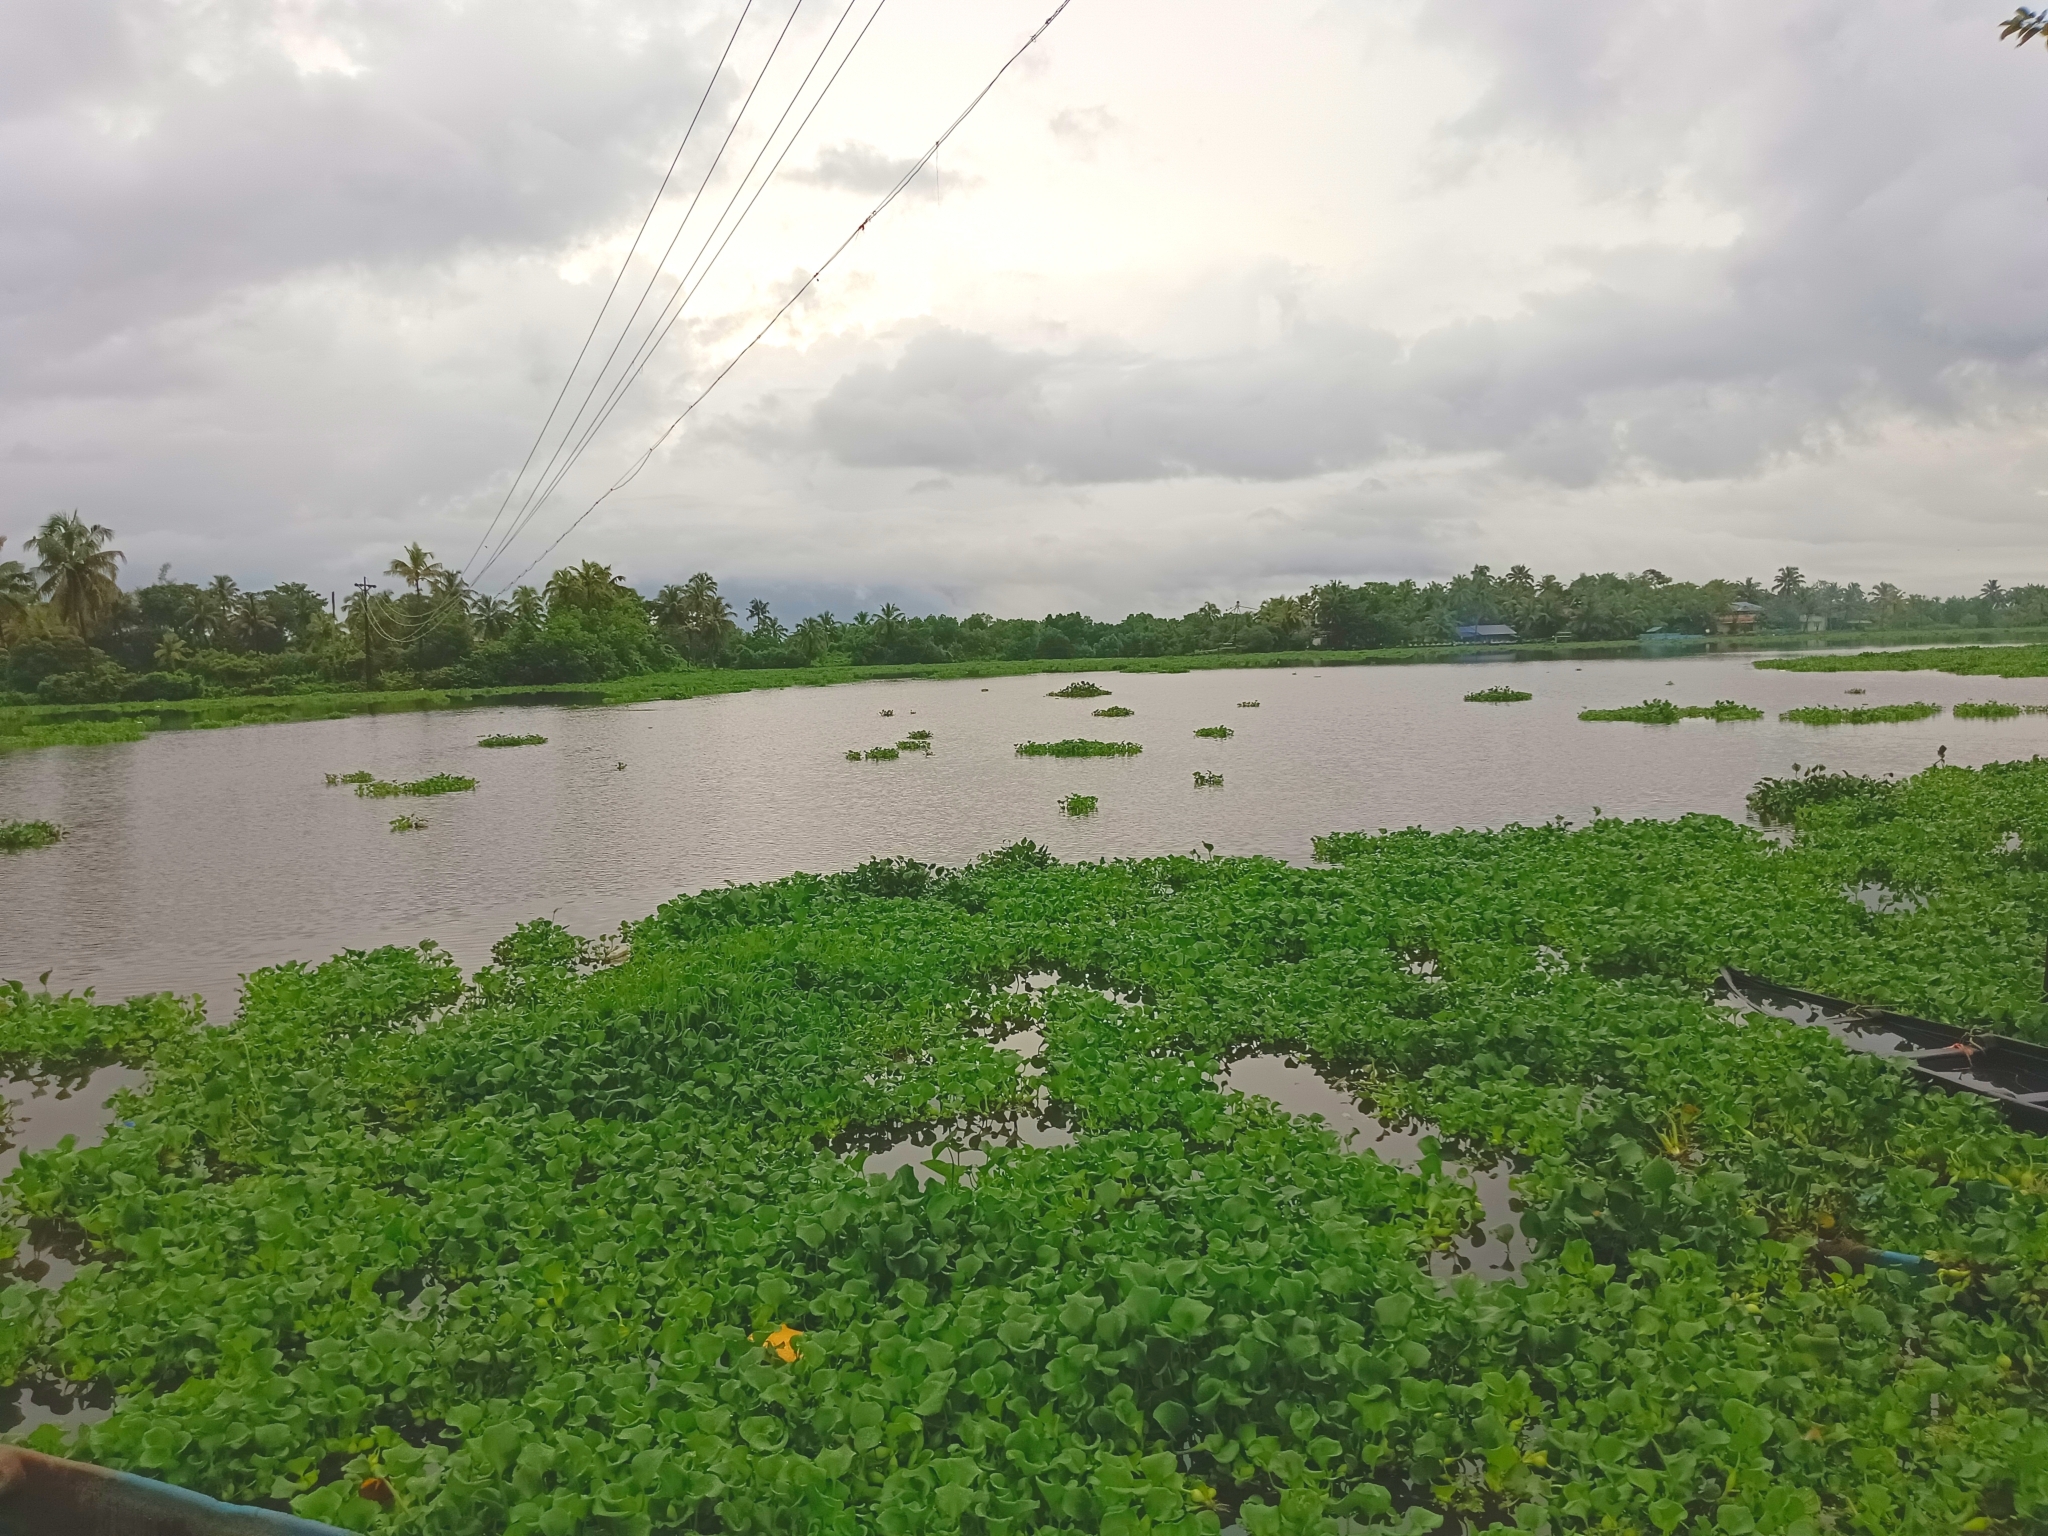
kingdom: Plantae
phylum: Tracheophyta
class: Liliopsida
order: Commelinales
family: Pontederiaceae
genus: Pontederia
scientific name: Pontederia crassipes
